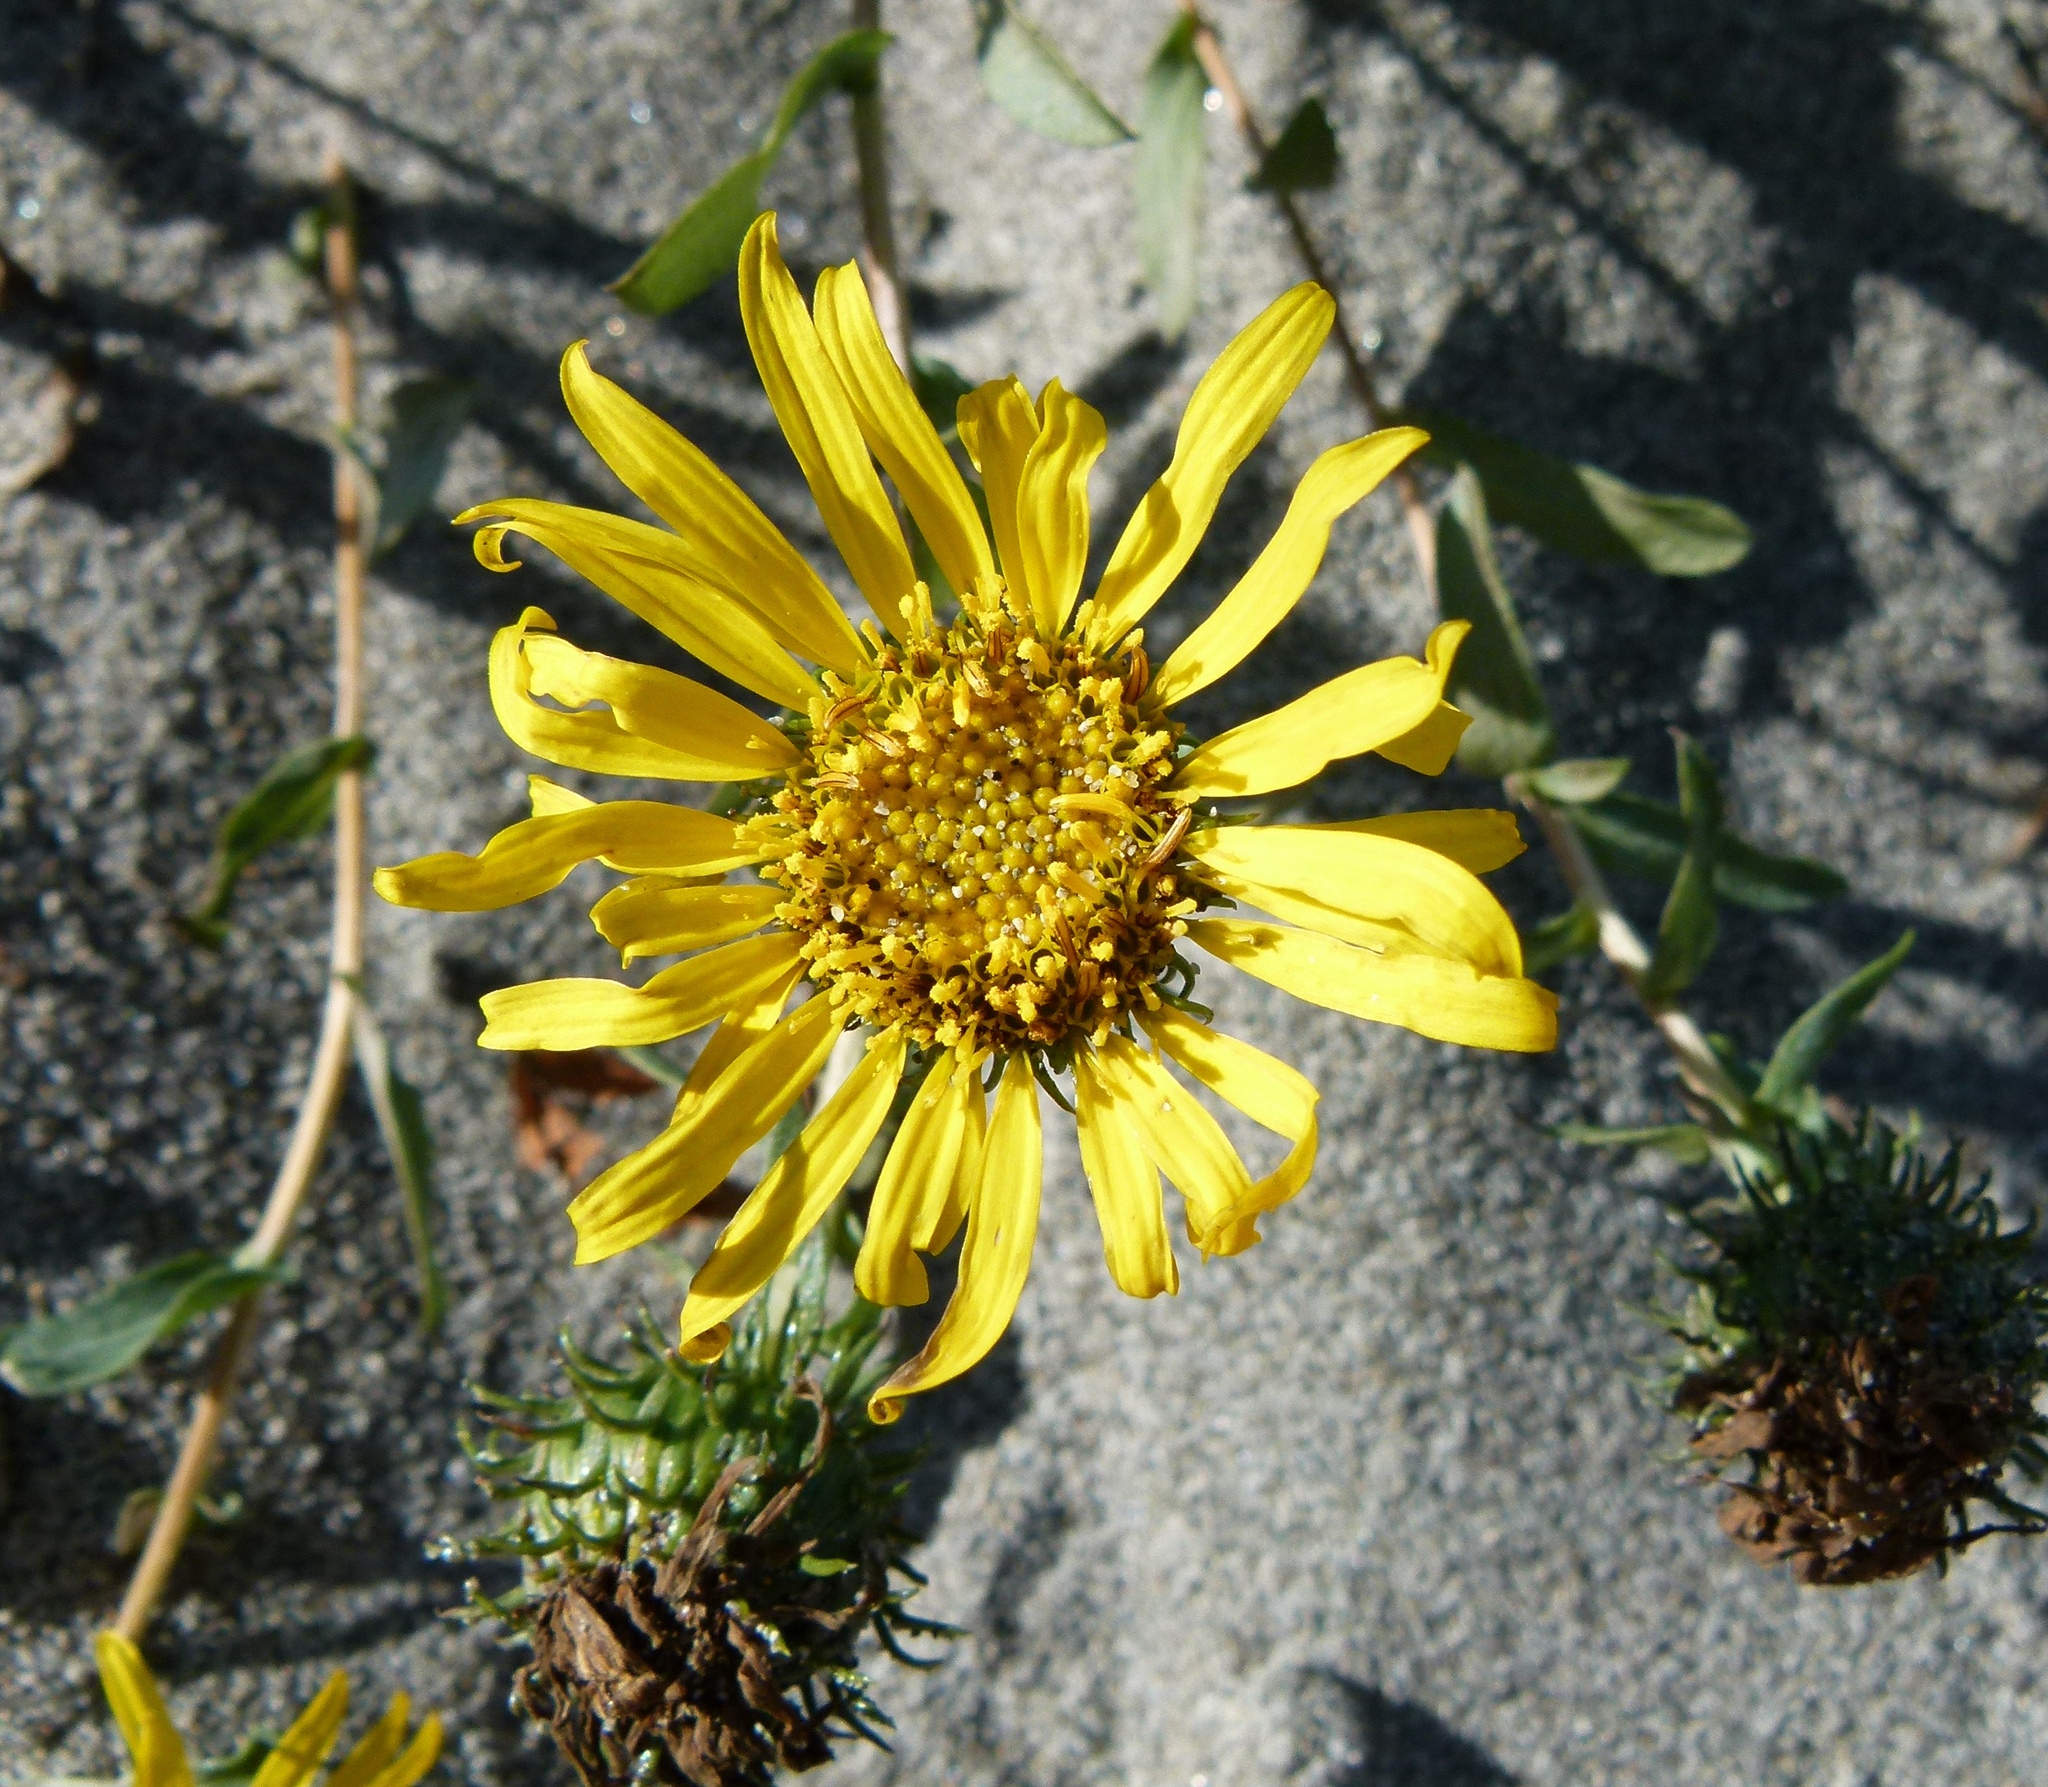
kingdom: Plantae
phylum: Tracheophyta
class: Magnoliopsida
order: Asterales
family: Asteraceae
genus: Grindelia
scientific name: Grindelia integrifolia
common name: Puget sound gumweed
